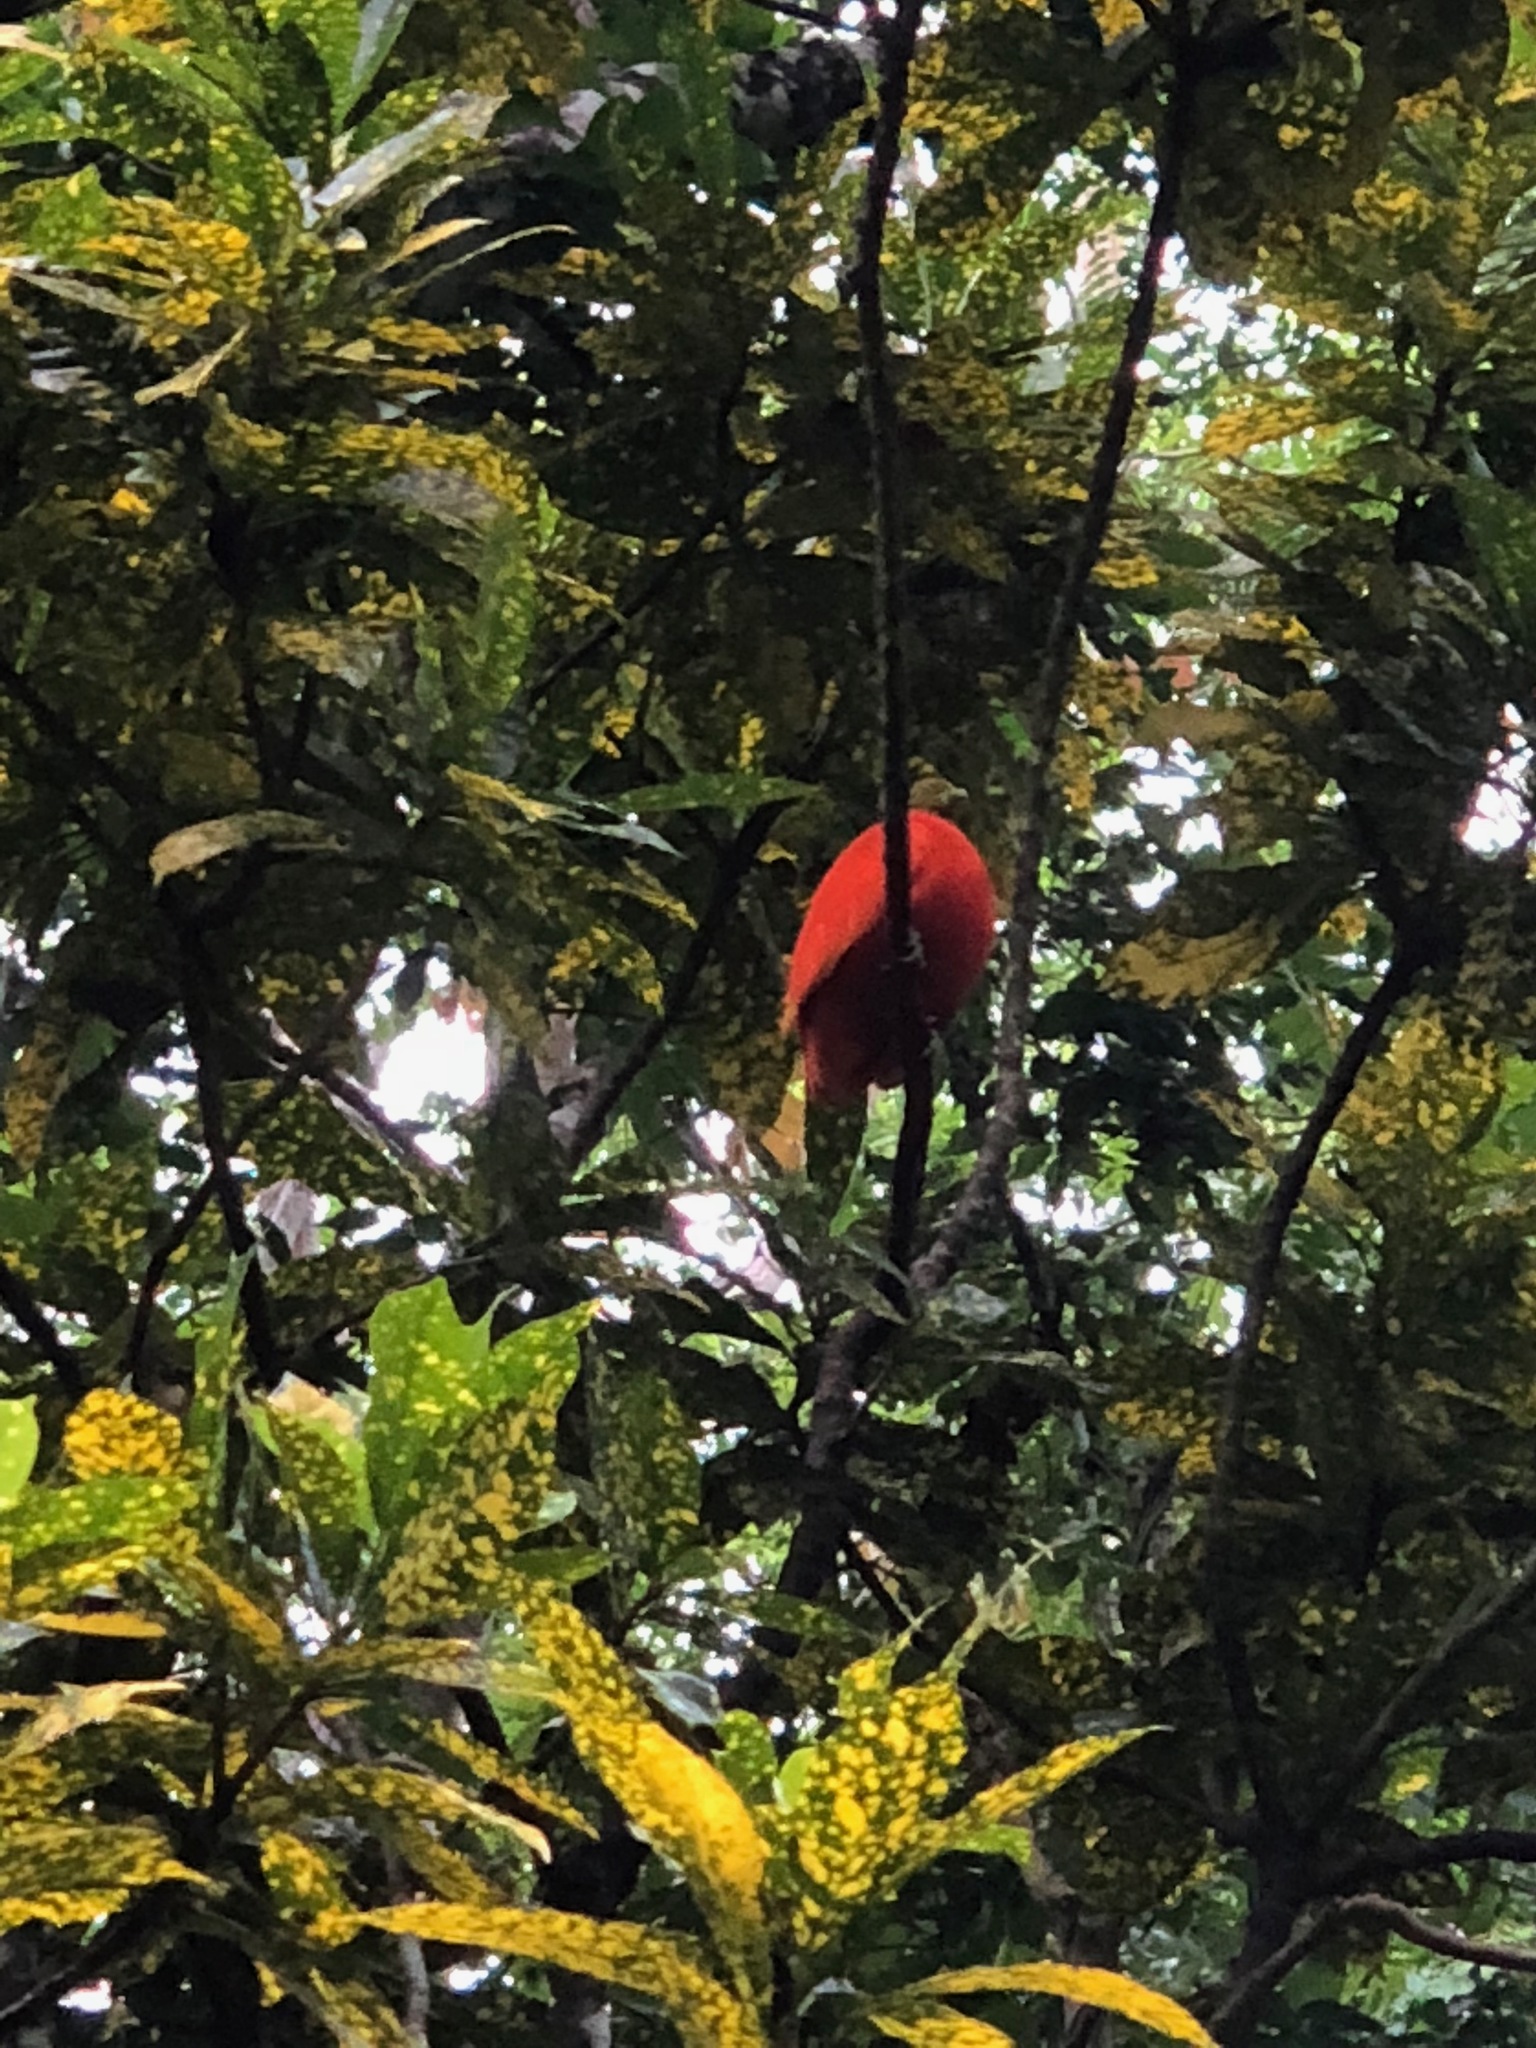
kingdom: Animalia
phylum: Chordata
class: Aves
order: Columbiformes
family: Columbidae
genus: Ptilinopus
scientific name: Ptilinopus victor
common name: Orange fruit dove
